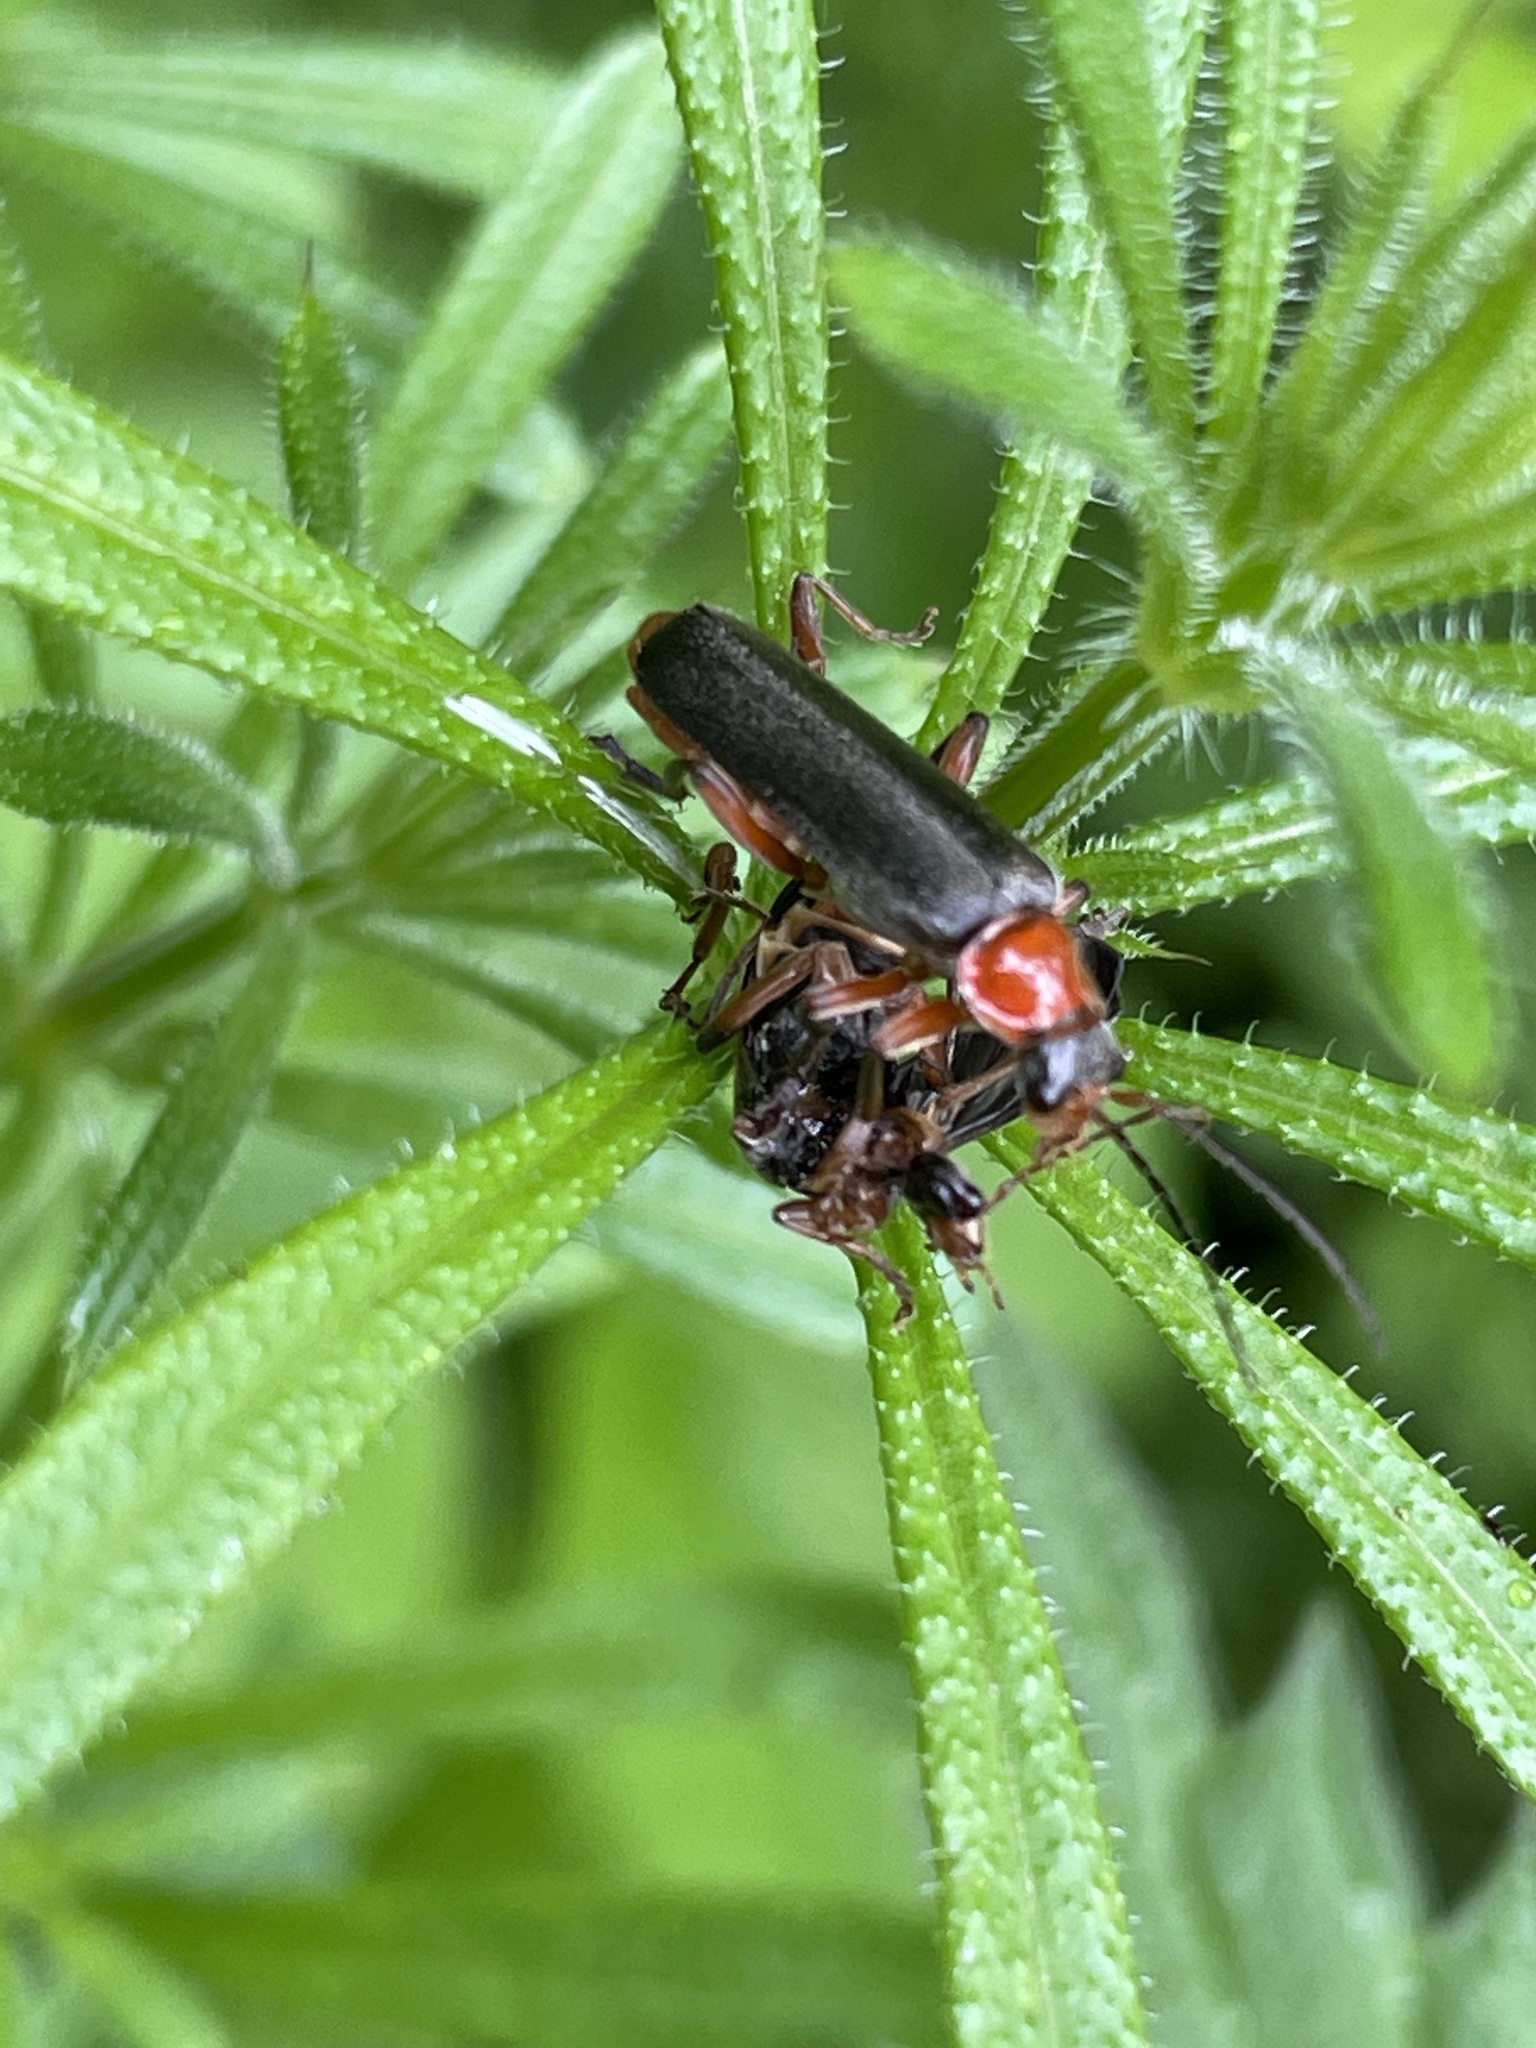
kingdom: Animalia
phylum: Arthropoda
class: Insecta
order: Coleoptera
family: Cantharidae
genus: Cantharis
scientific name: Cantharis pellucida
